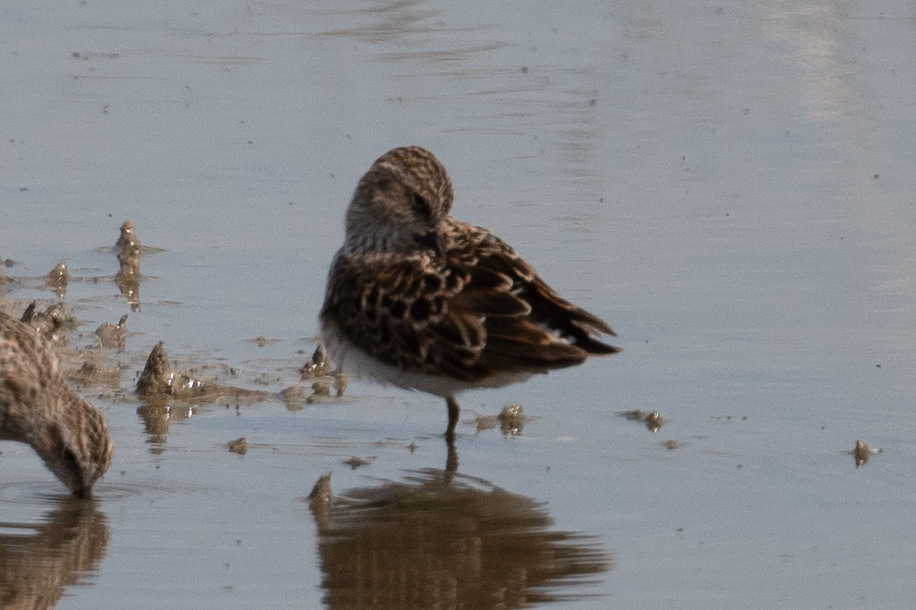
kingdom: Animalia
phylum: Chordata
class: Aves
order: Charadriiformes
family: Scolopacidae
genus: Calidris
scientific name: Calidris minutilla
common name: Least sandpiper
